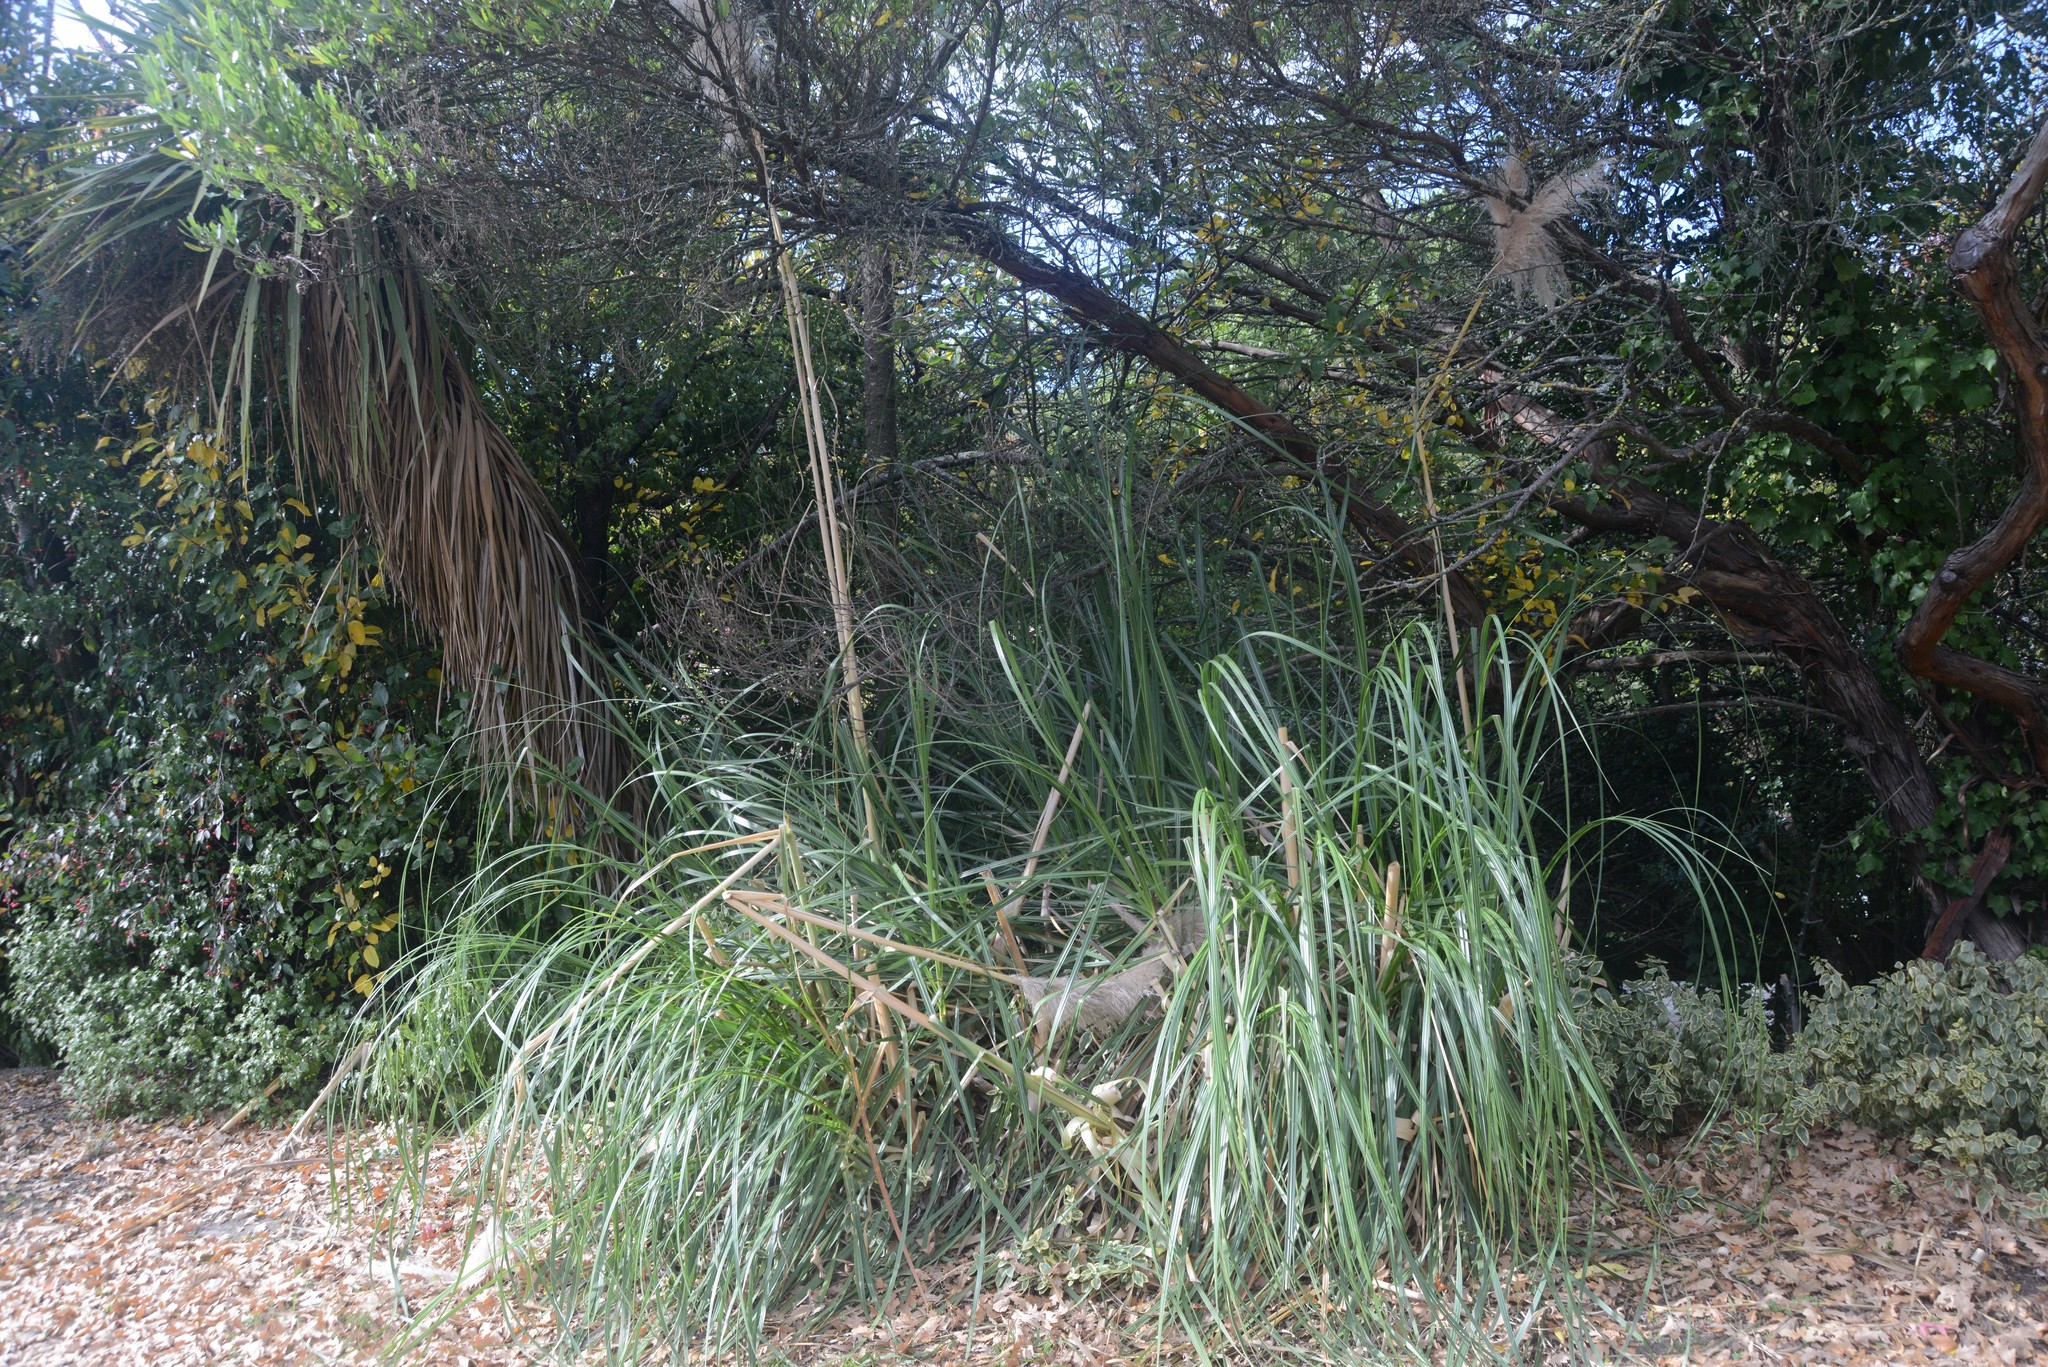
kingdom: Plantae
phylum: Tracheophyta
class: Liliopsida
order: Poales
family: Poaceae
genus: Cortaderia
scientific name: Cortaderia selloana
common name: Uruguayan pampas grass
